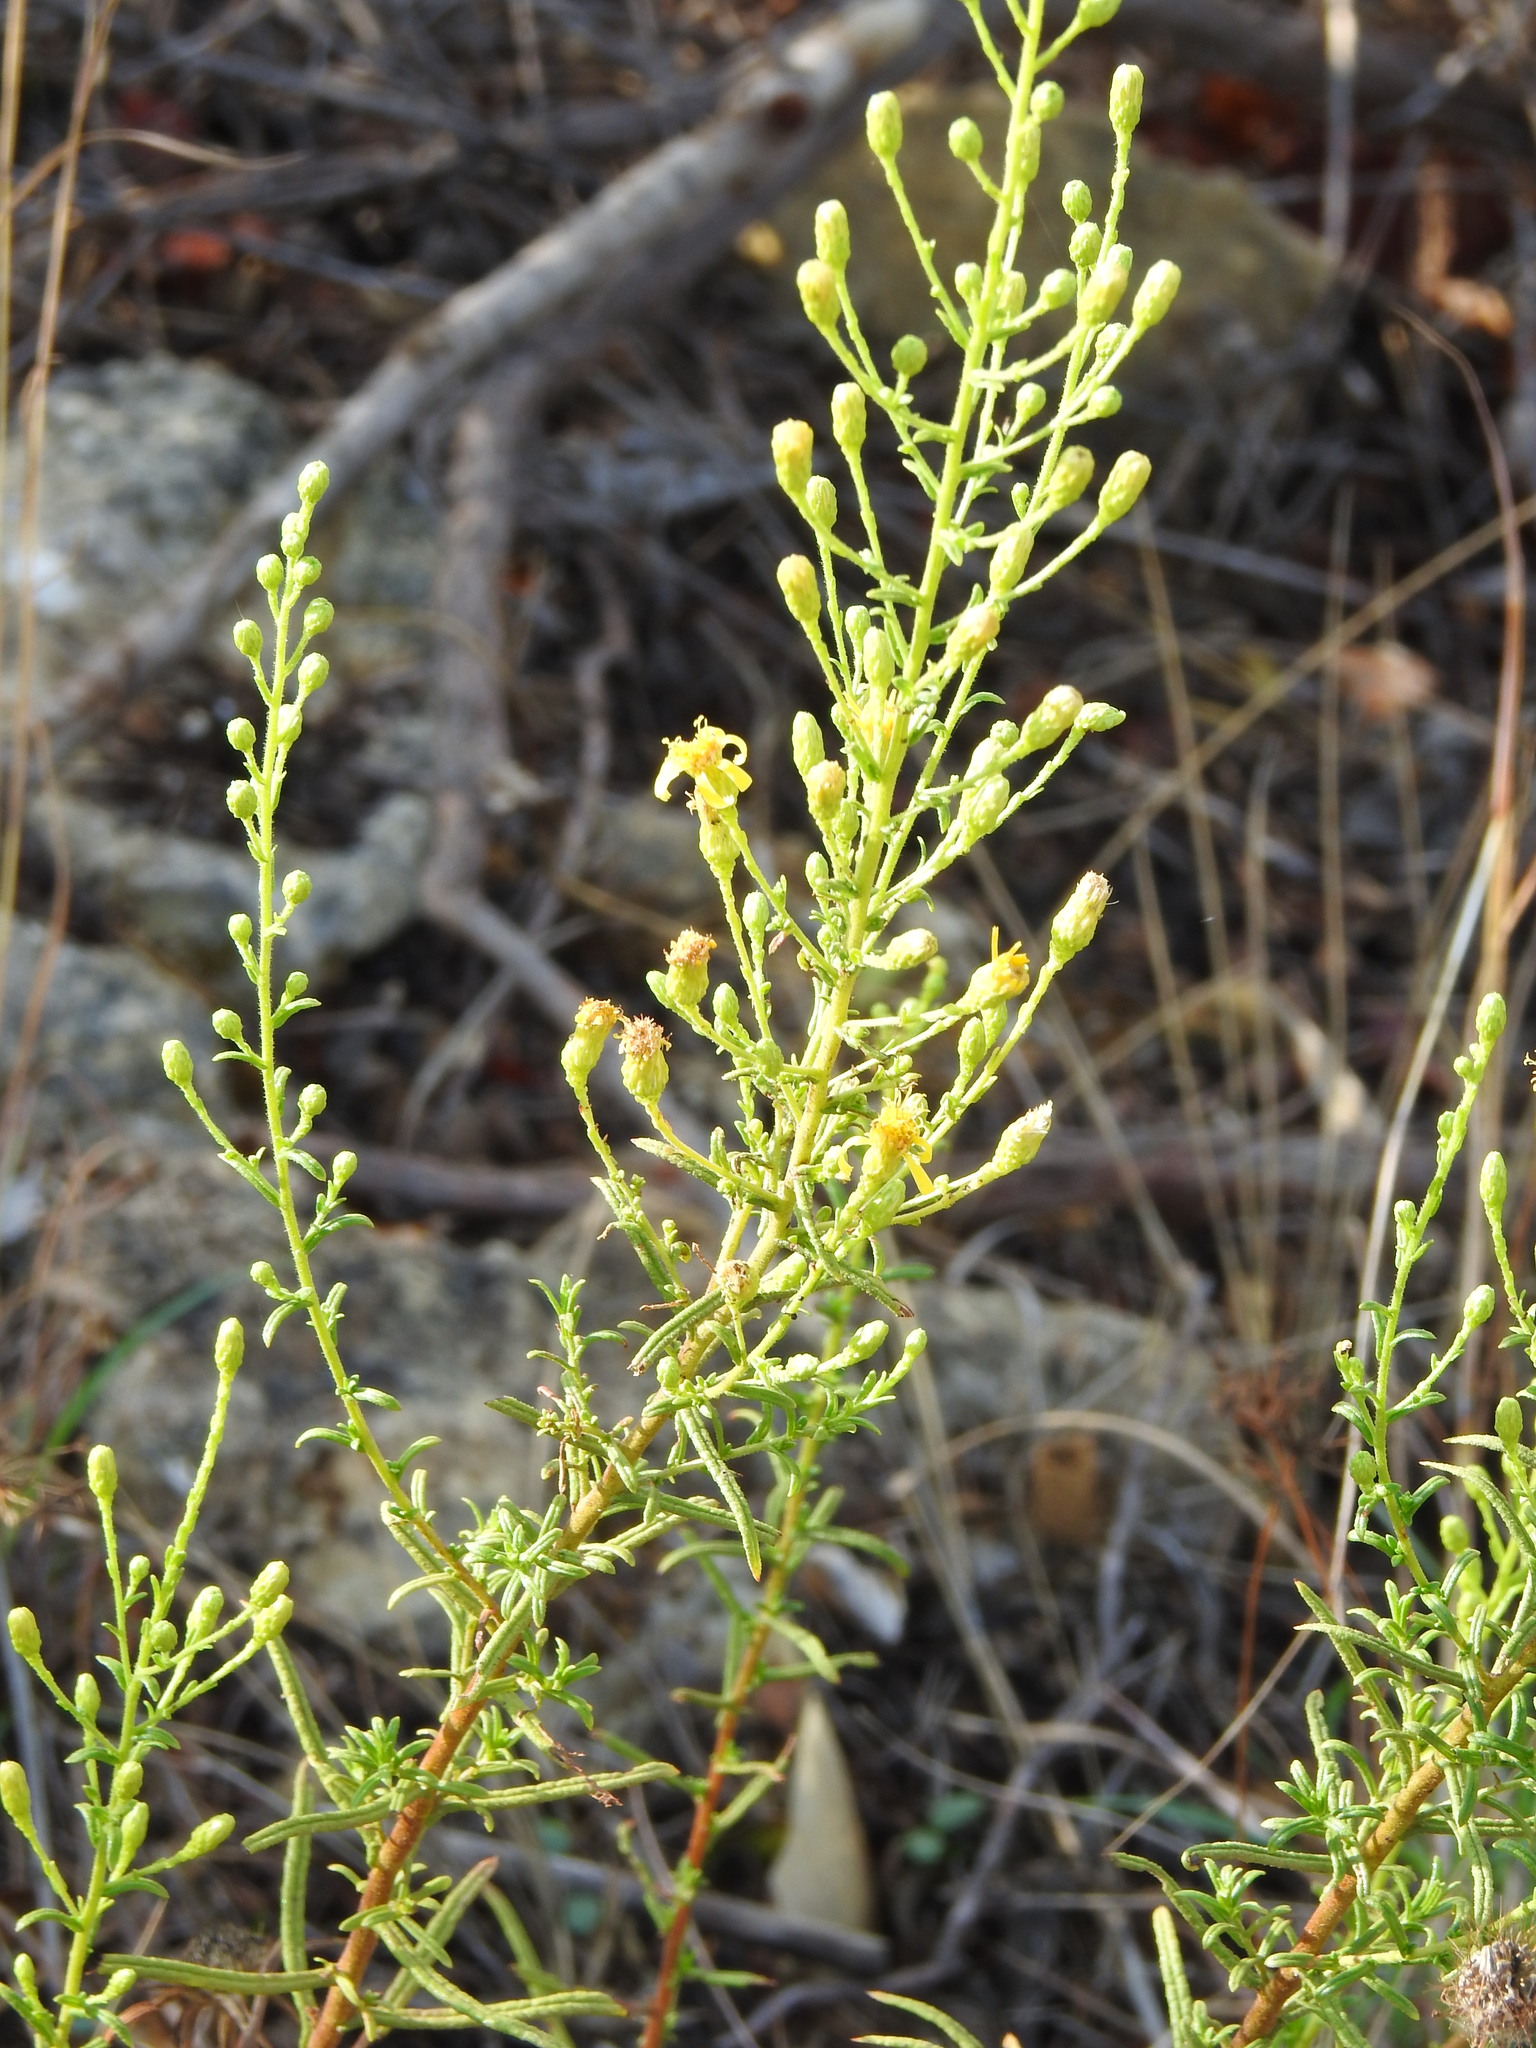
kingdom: Plantae
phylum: Tracheophyta
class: Magnoliopsida
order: Asterales
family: Asteraceae
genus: Dittrichia
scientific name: Dittrichia viscosa
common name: Woody fleabane
